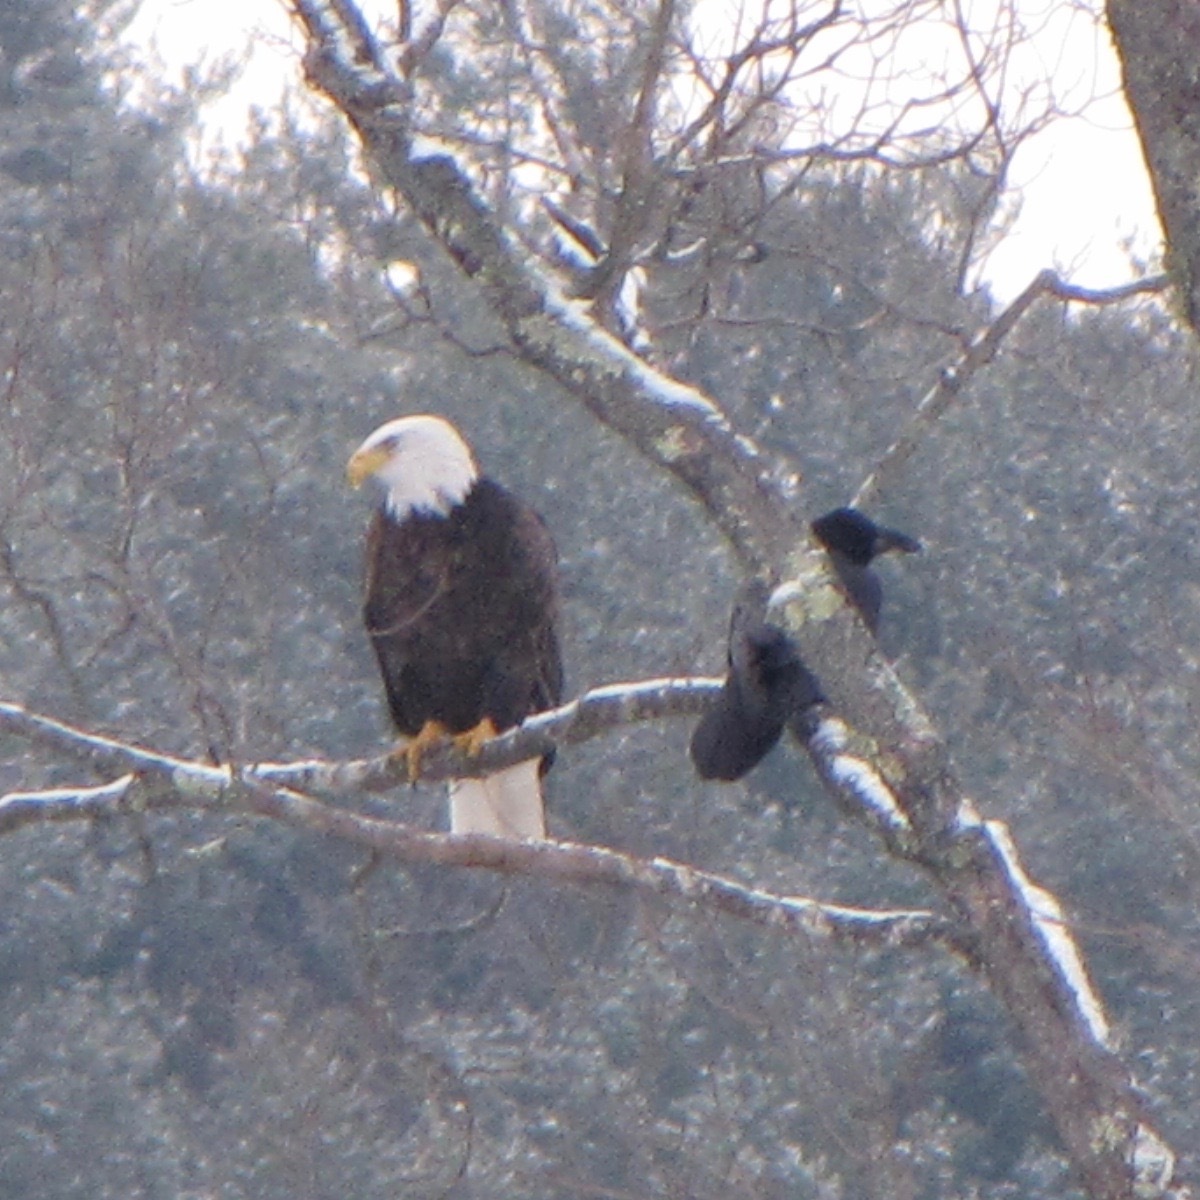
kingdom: Animalia
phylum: Chordata
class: Aves
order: Passeriformes
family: Corvidae
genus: Corvus
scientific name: Corvus corax
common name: Common raven
